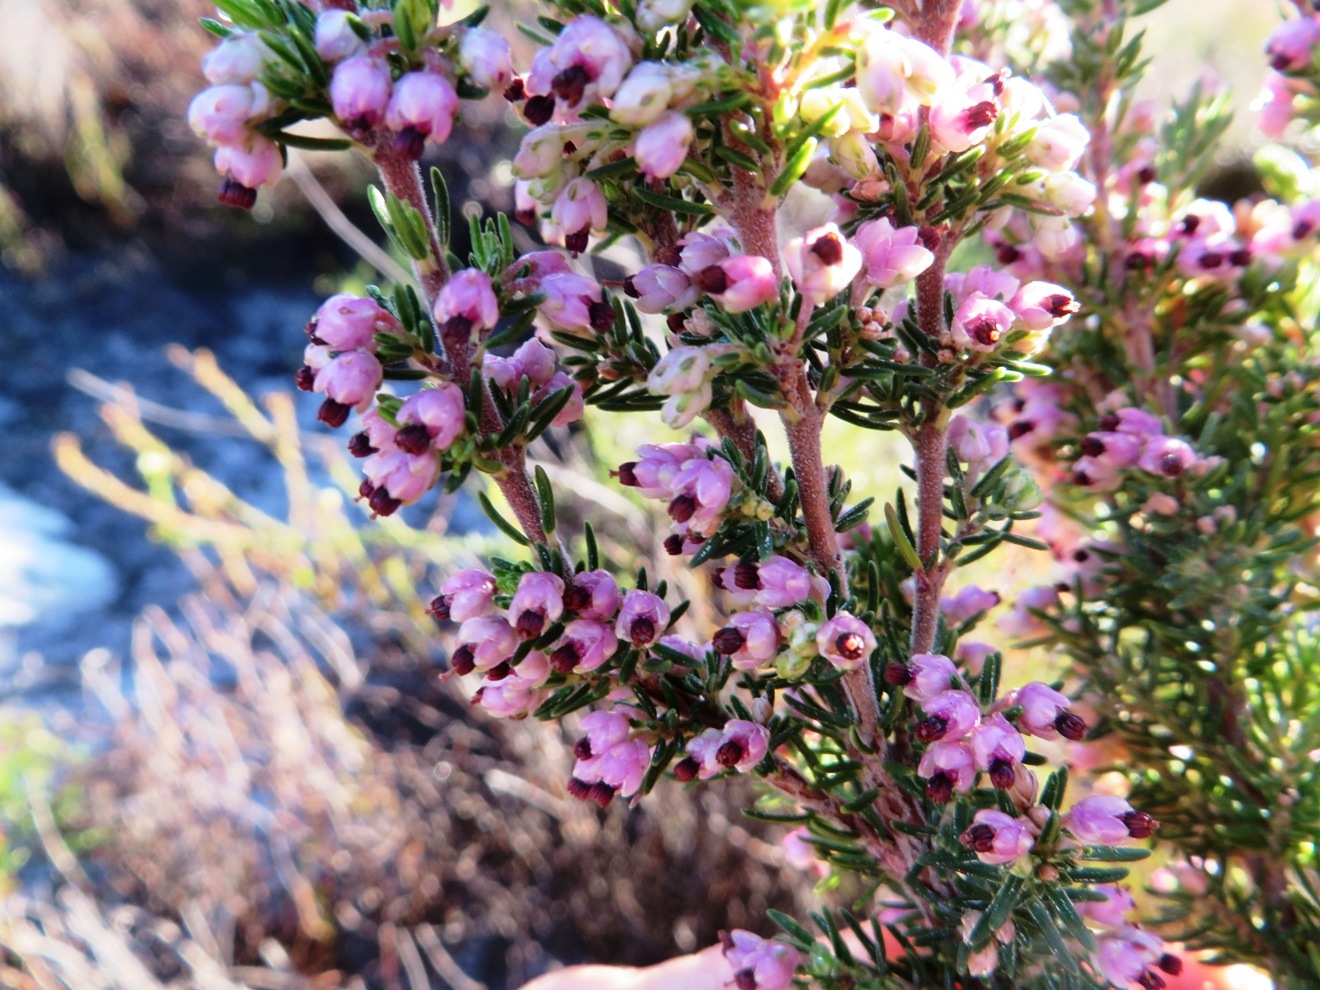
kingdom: Plantae
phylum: Tracheophyta
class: Magnoliopsida
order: Ericales
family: Ericaceae
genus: Erica
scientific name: Erica placentiflora
